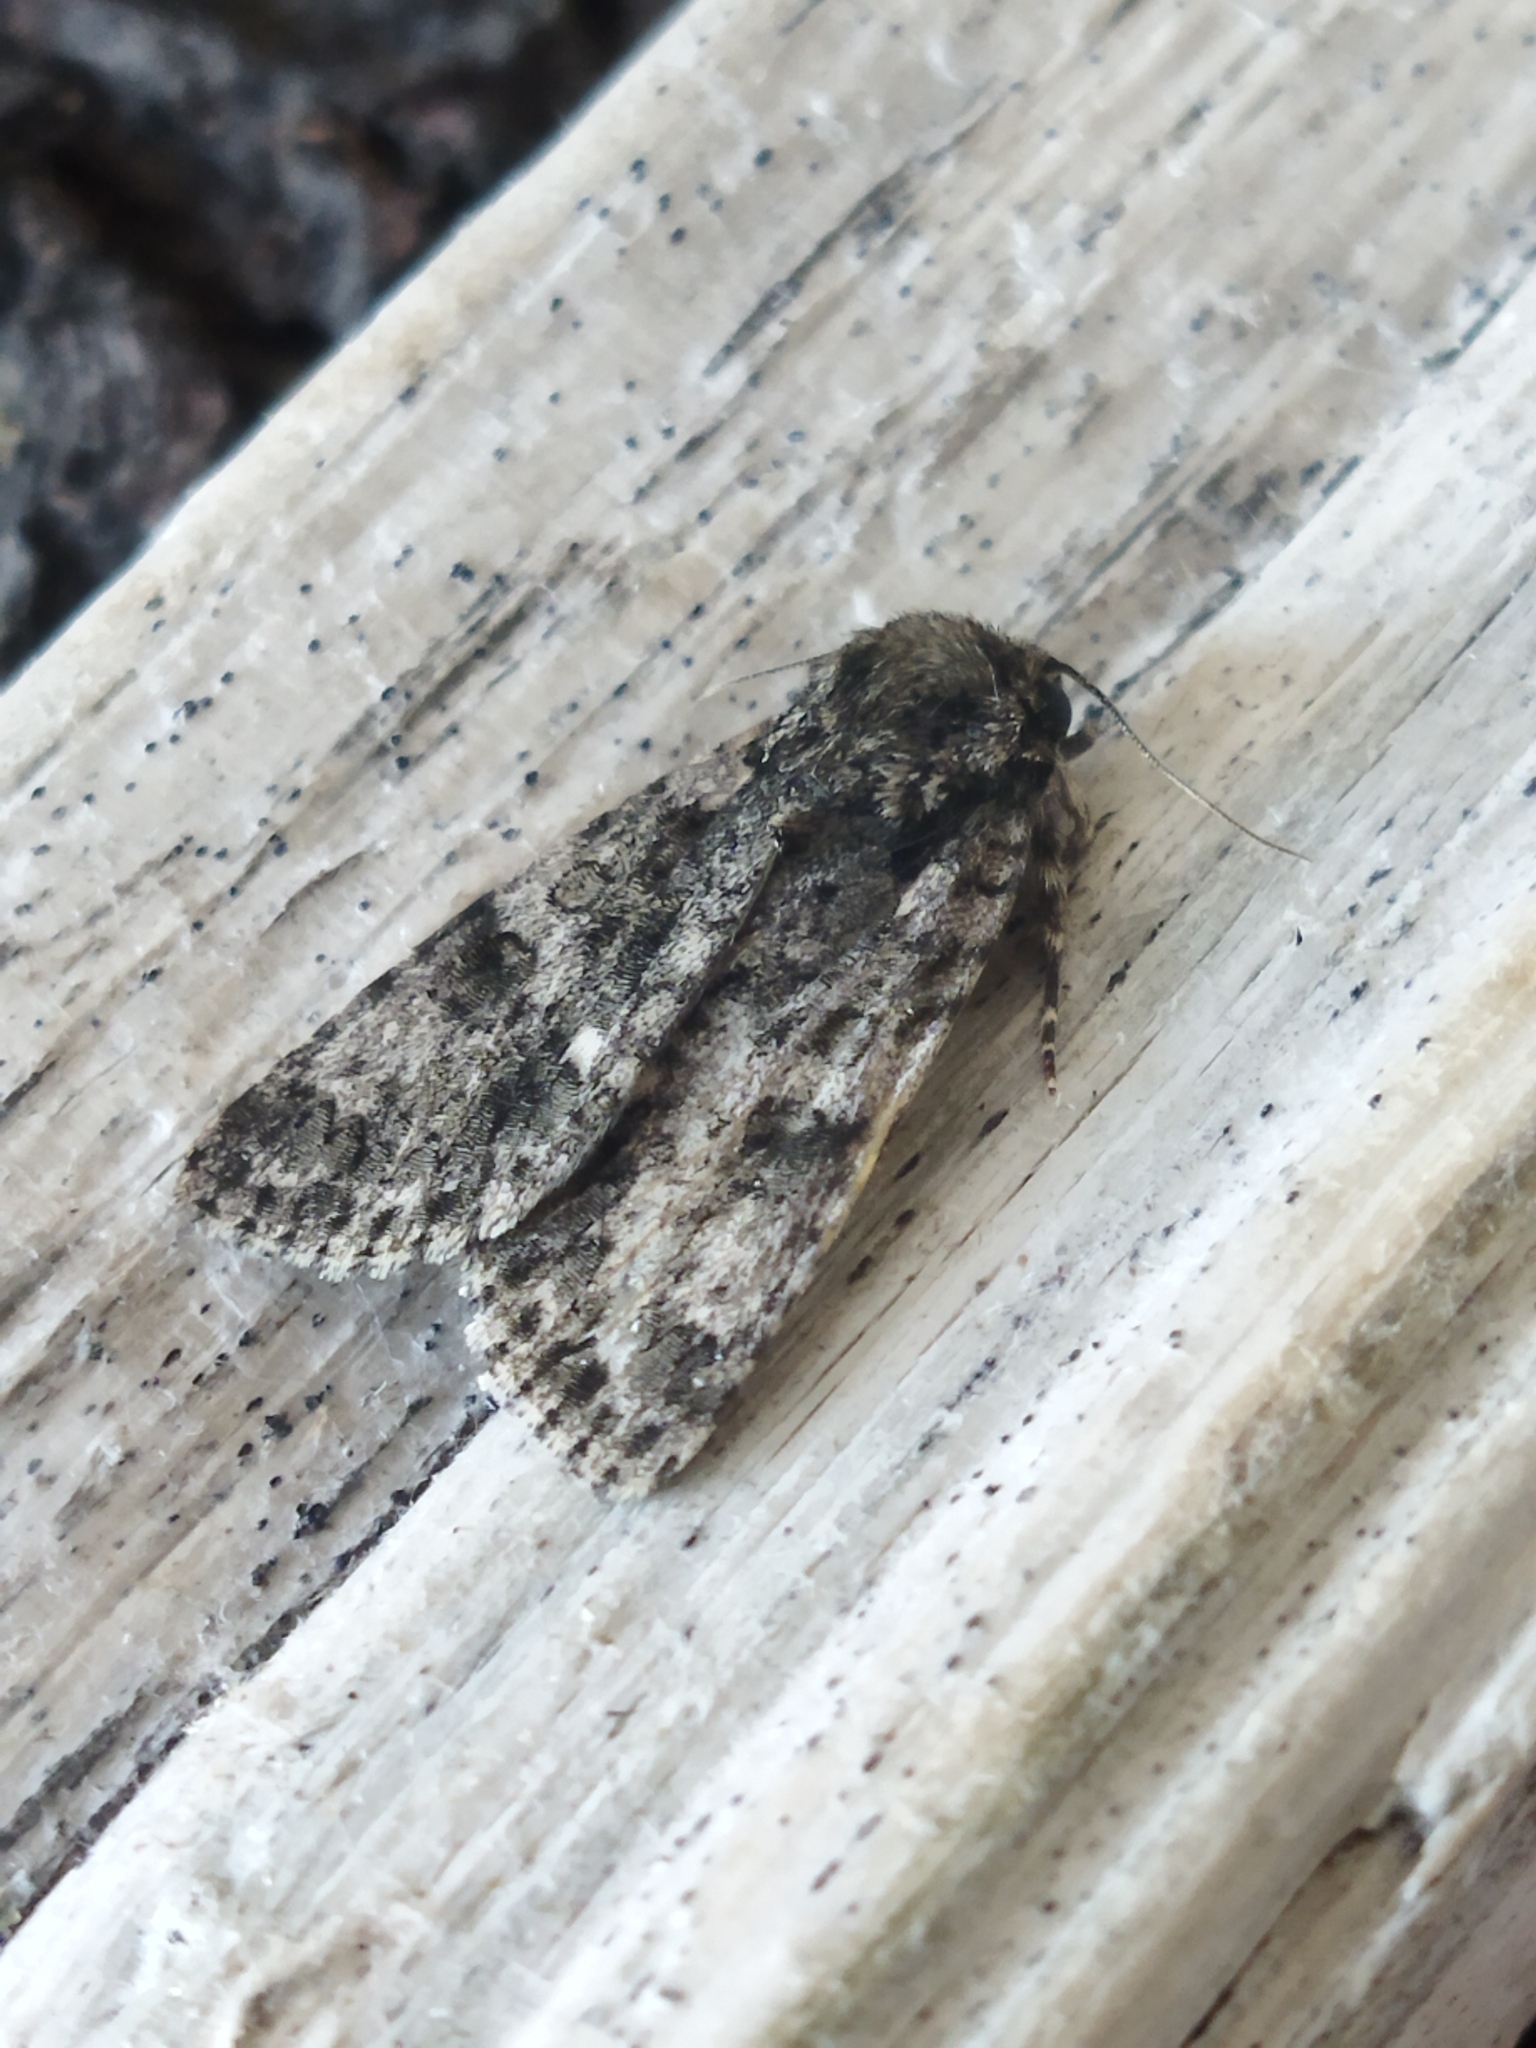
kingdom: Animalia
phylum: Arthropoda
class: Insecta
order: Lepidoptera
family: Noctuidae
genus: Acronicta
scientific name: Acronicta rumicis
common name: Knot grass
